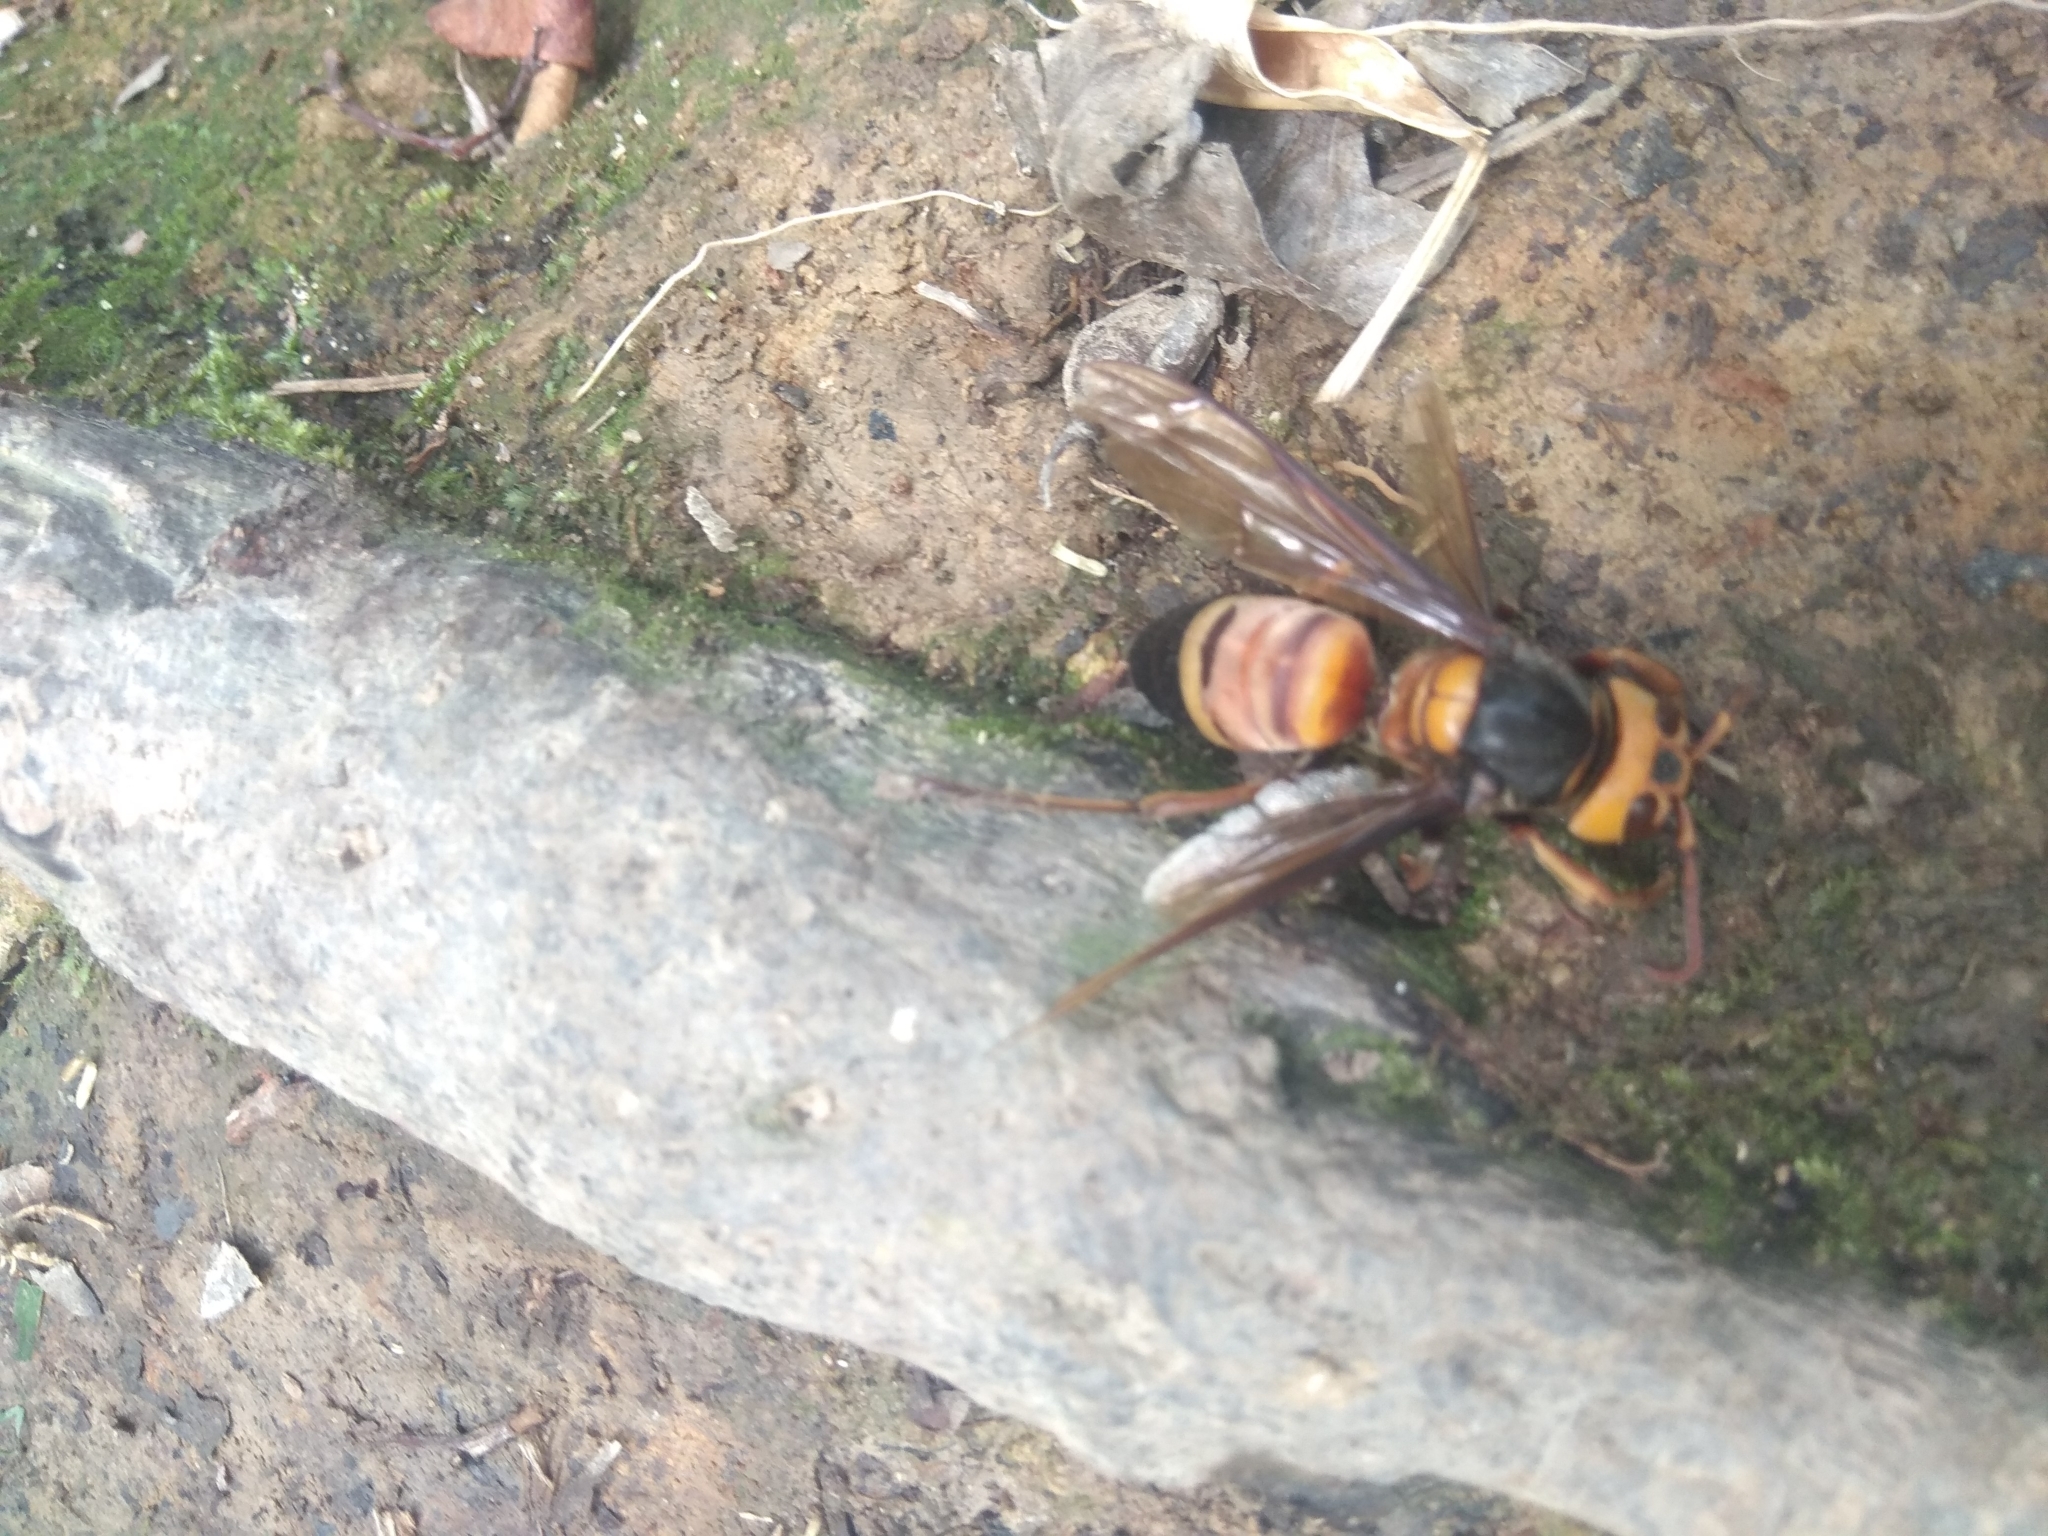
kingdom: Animalia
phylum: Arthropoda
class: Insecta
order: Hymenoptera
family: Vespidae
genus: Vespa
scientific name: Vespa soror
